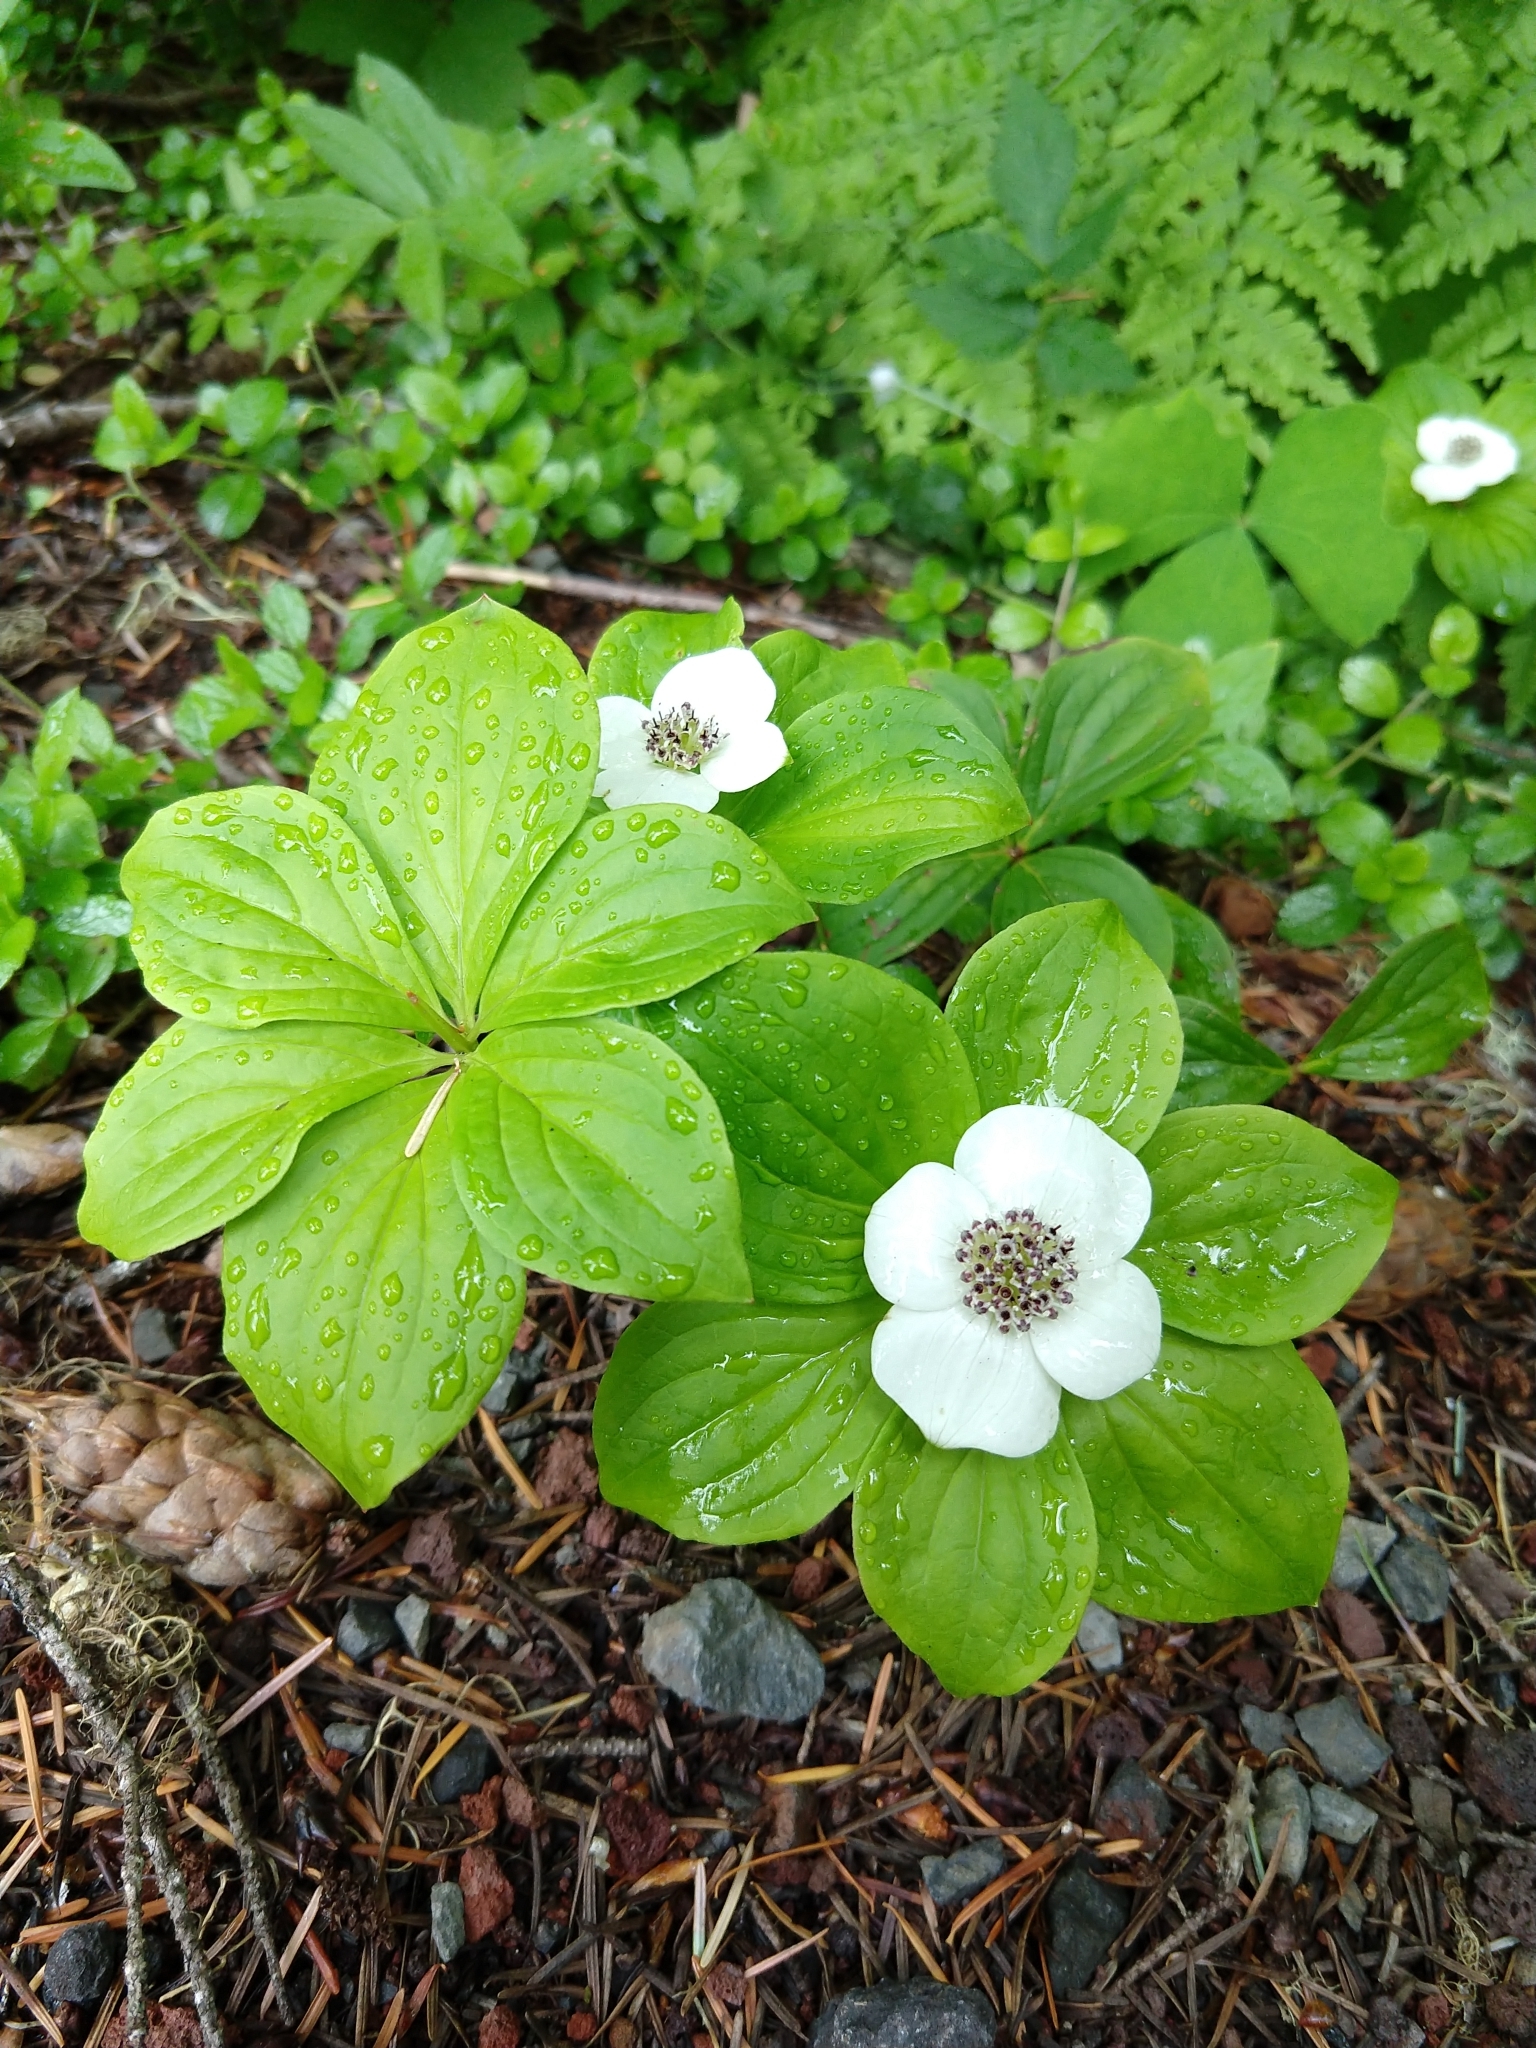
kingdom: Plantae
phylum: Tracheophyta
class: Magnoliopsida
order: Cornales
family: Cornaceae
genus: Cornus
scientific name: Cornus unalaschkensis
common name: Alaska bunchberry
